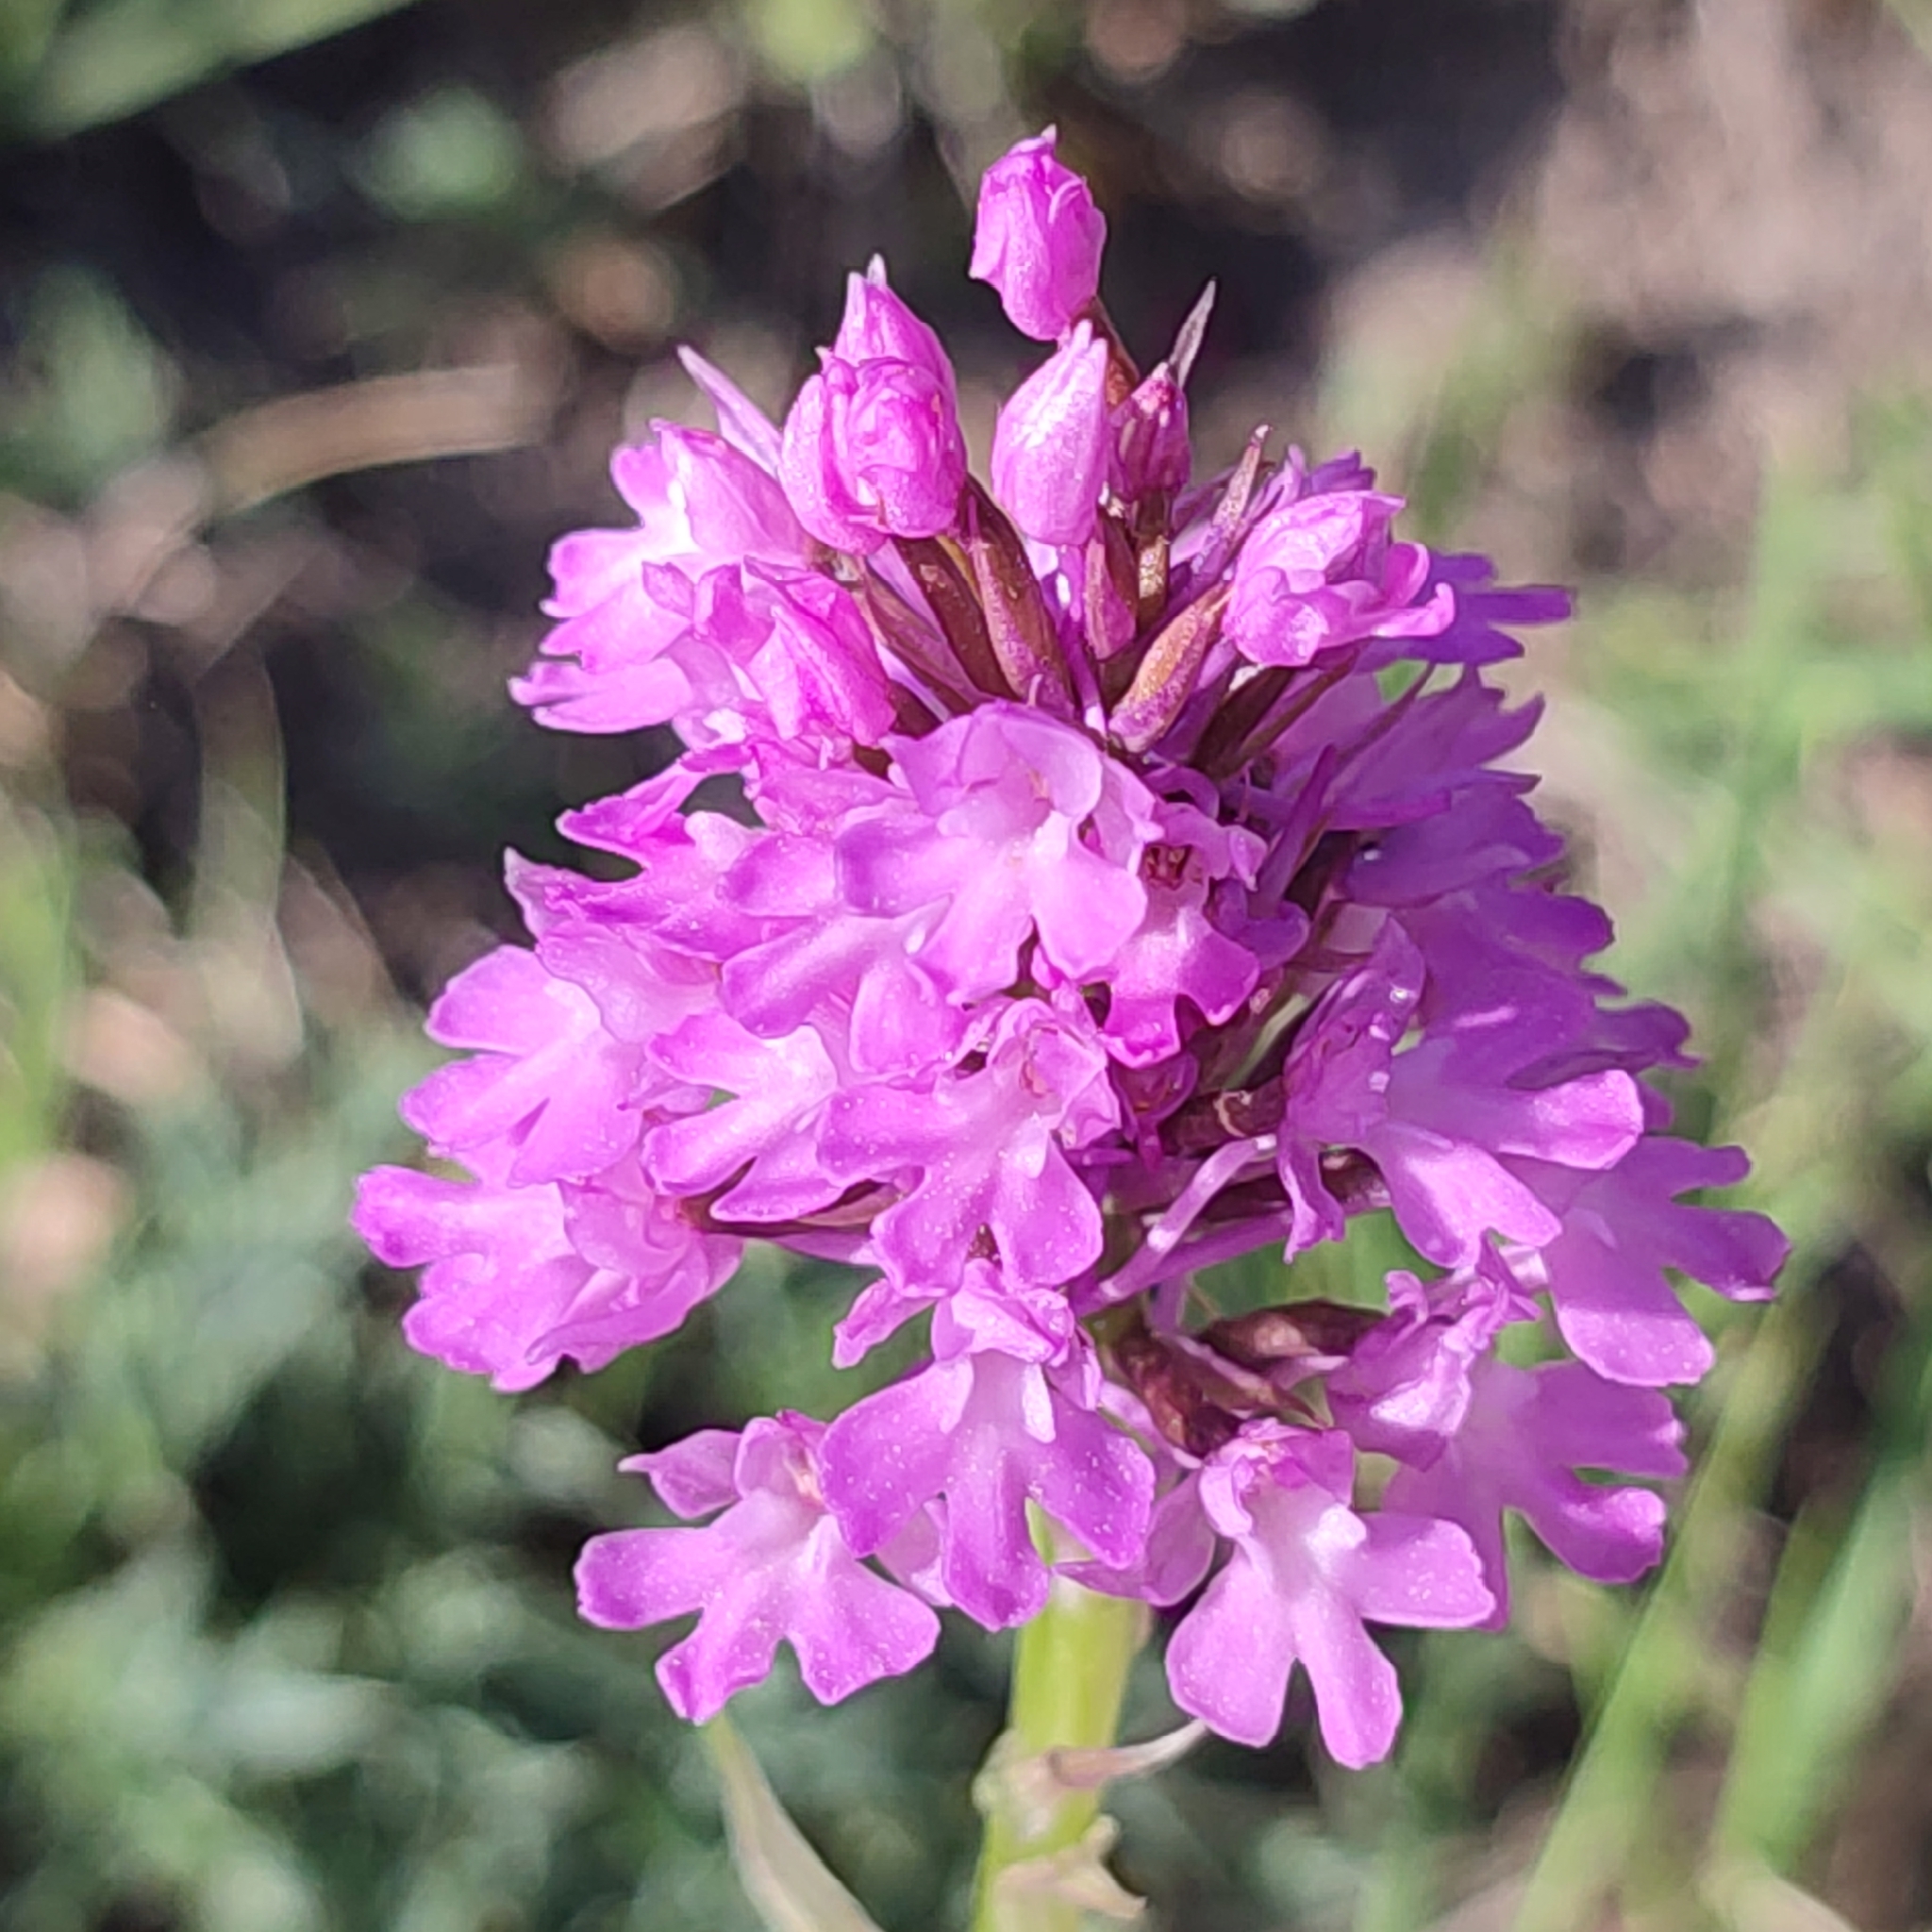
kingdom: Plantae
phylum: Tracheophyta
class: Liliopsida
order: Asparagales
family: Orchidaceae
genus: Anacamptis
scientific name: Anacamptis pyramidalis
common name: Pyramidal orchid
